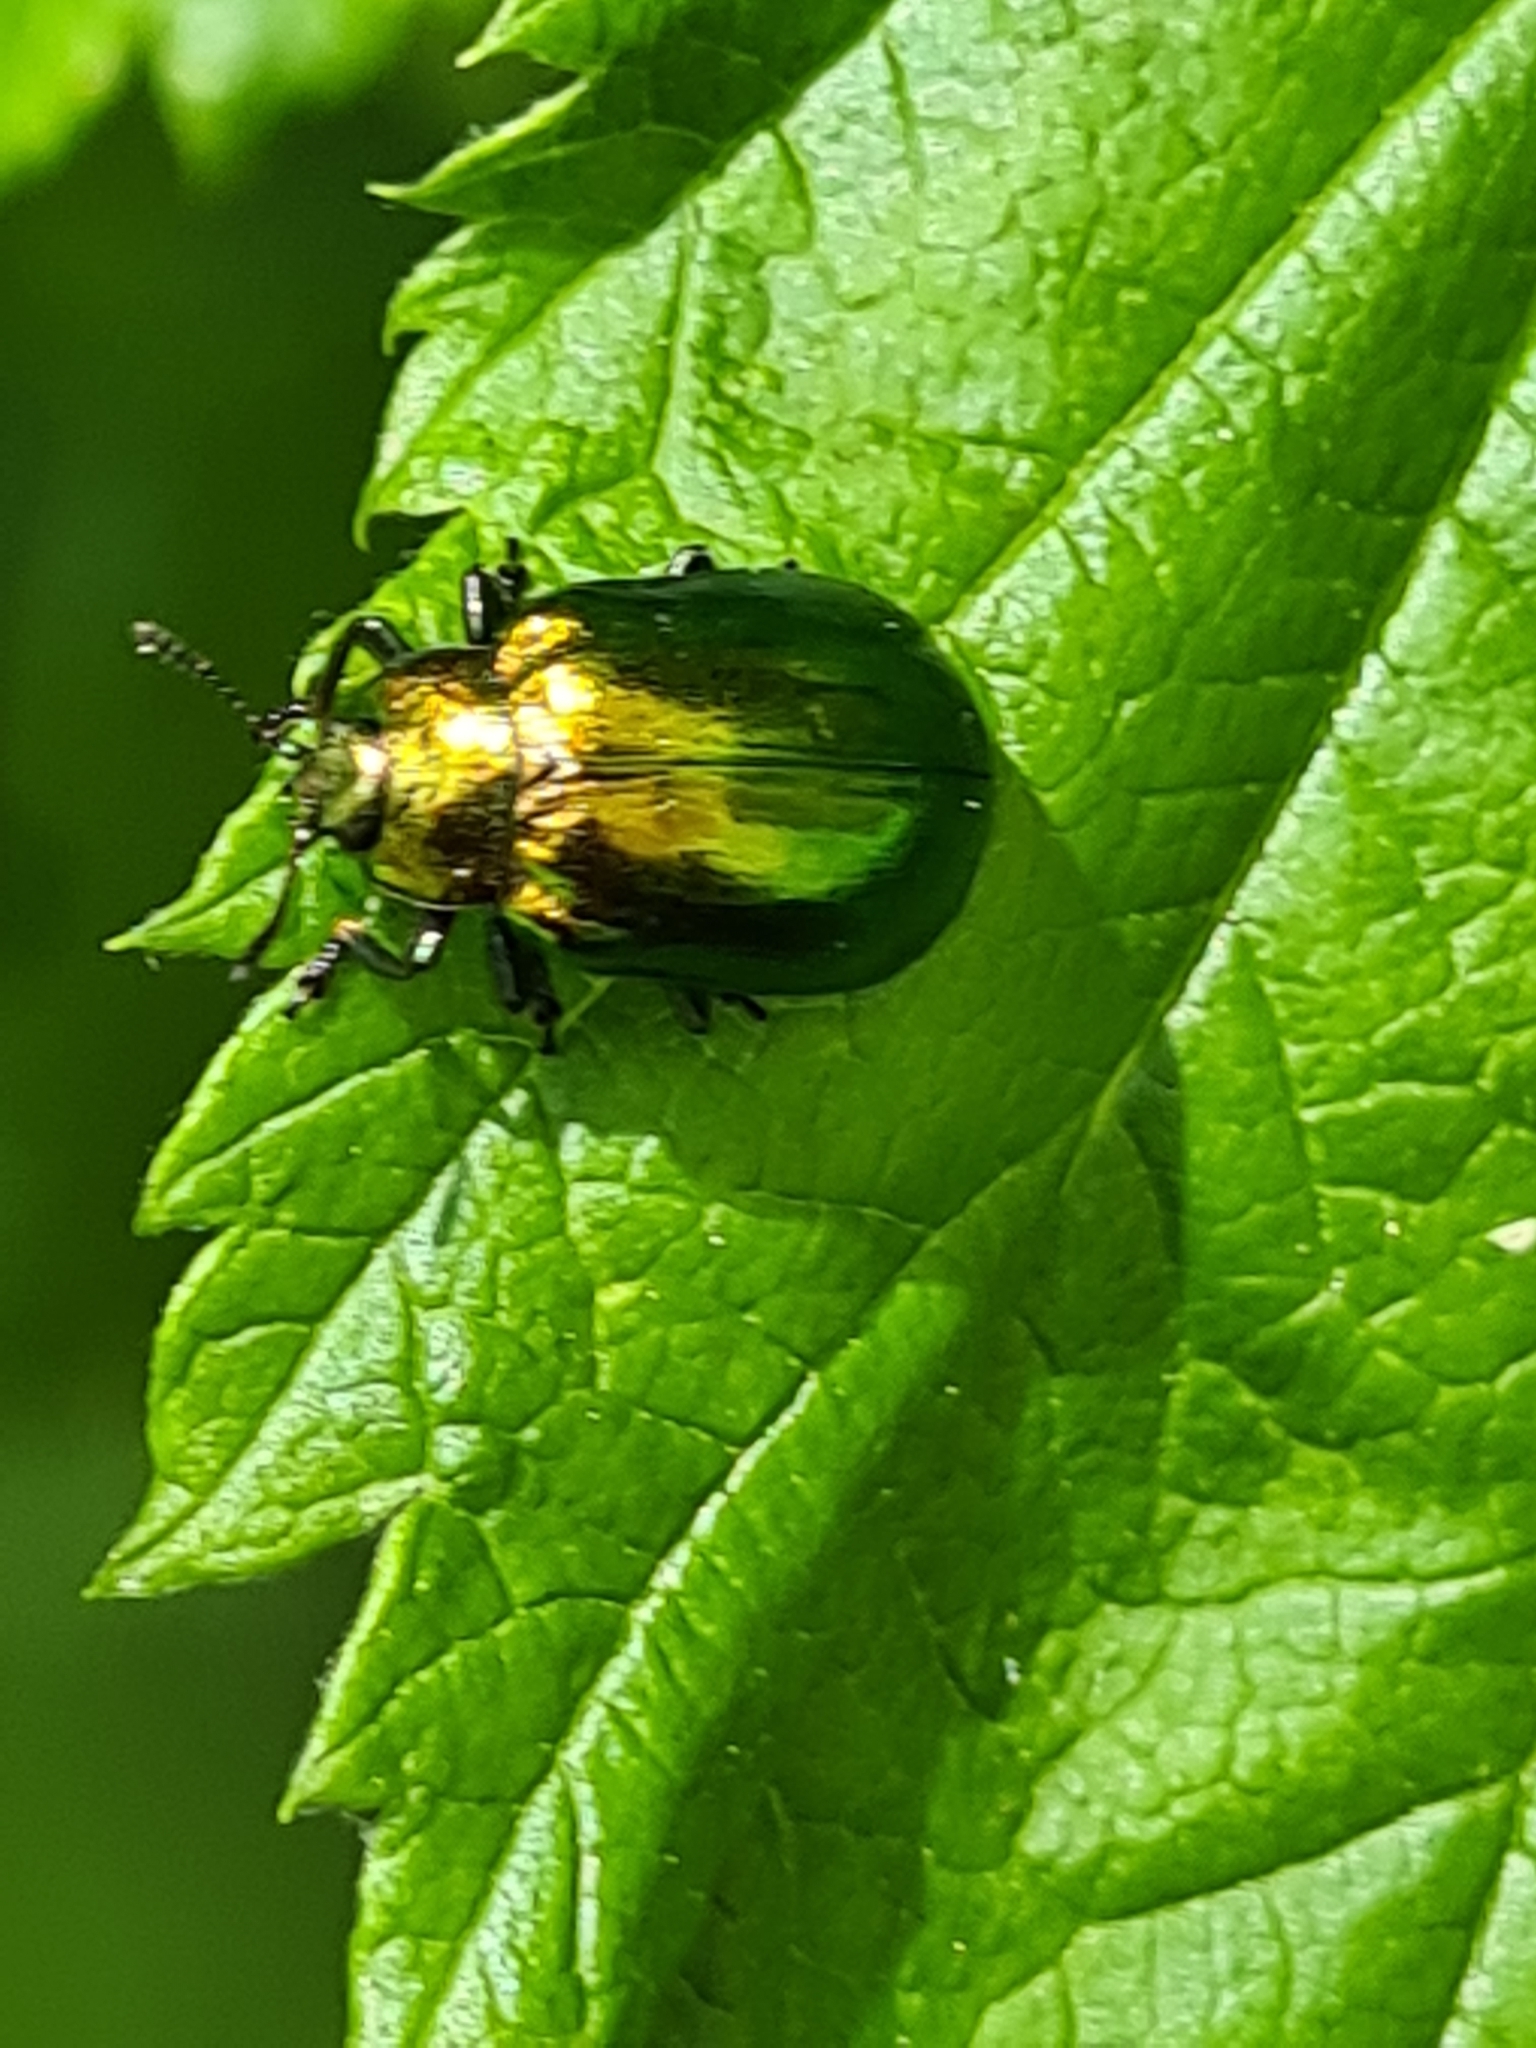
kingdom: Animalia
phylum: Arthropoda
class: Insecta
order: Coleoptera
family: Chrysomelidae
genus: Plagiosterna
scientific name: Plagiosterna aenea
